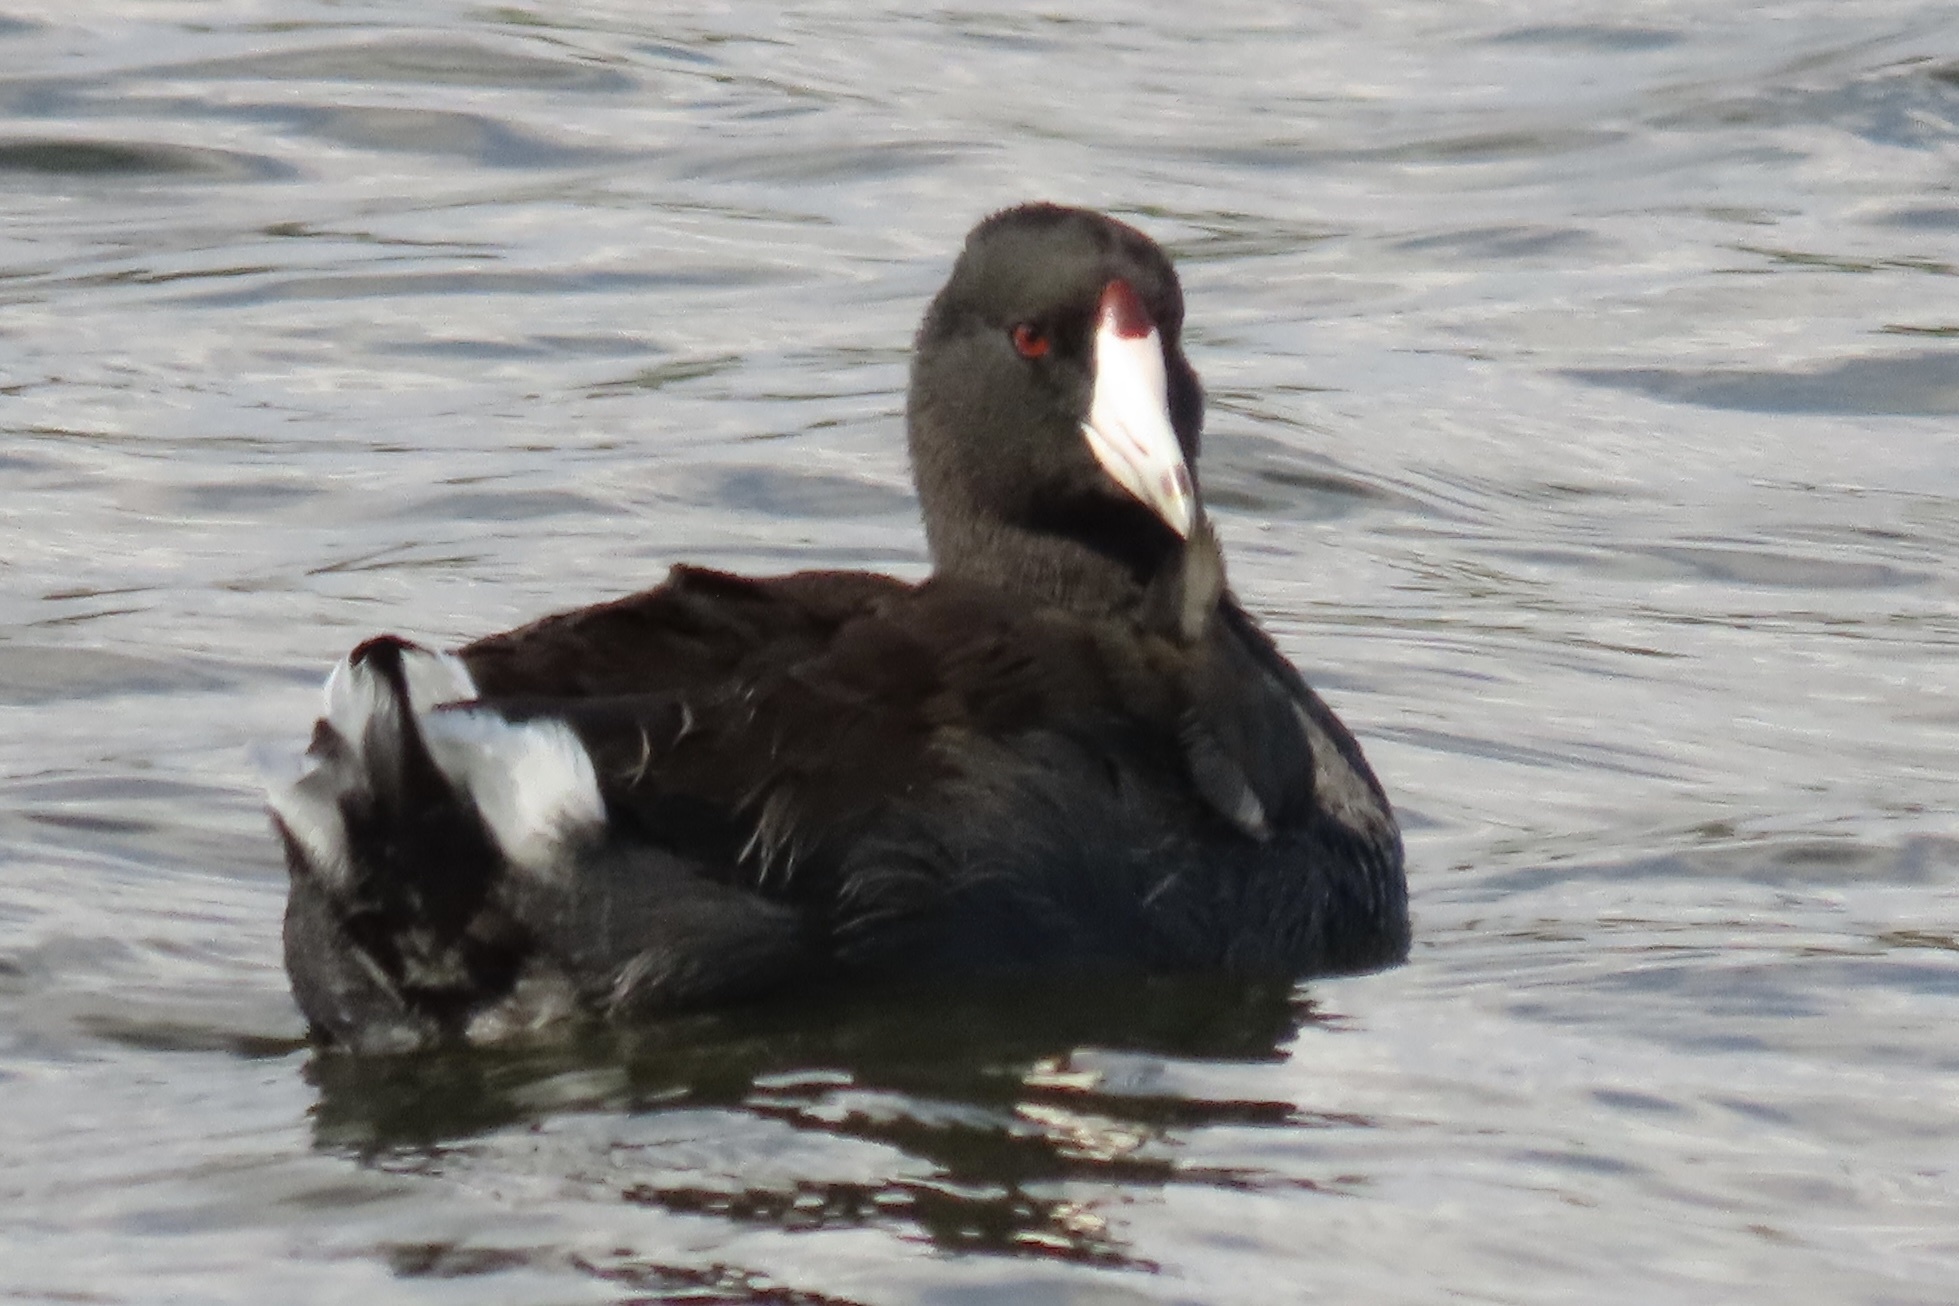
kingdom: Animalia
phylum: Chordata
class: Aves
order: Gruiformes
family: Rallidae
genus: Fulica
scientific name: Fulica americana
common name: American coot
